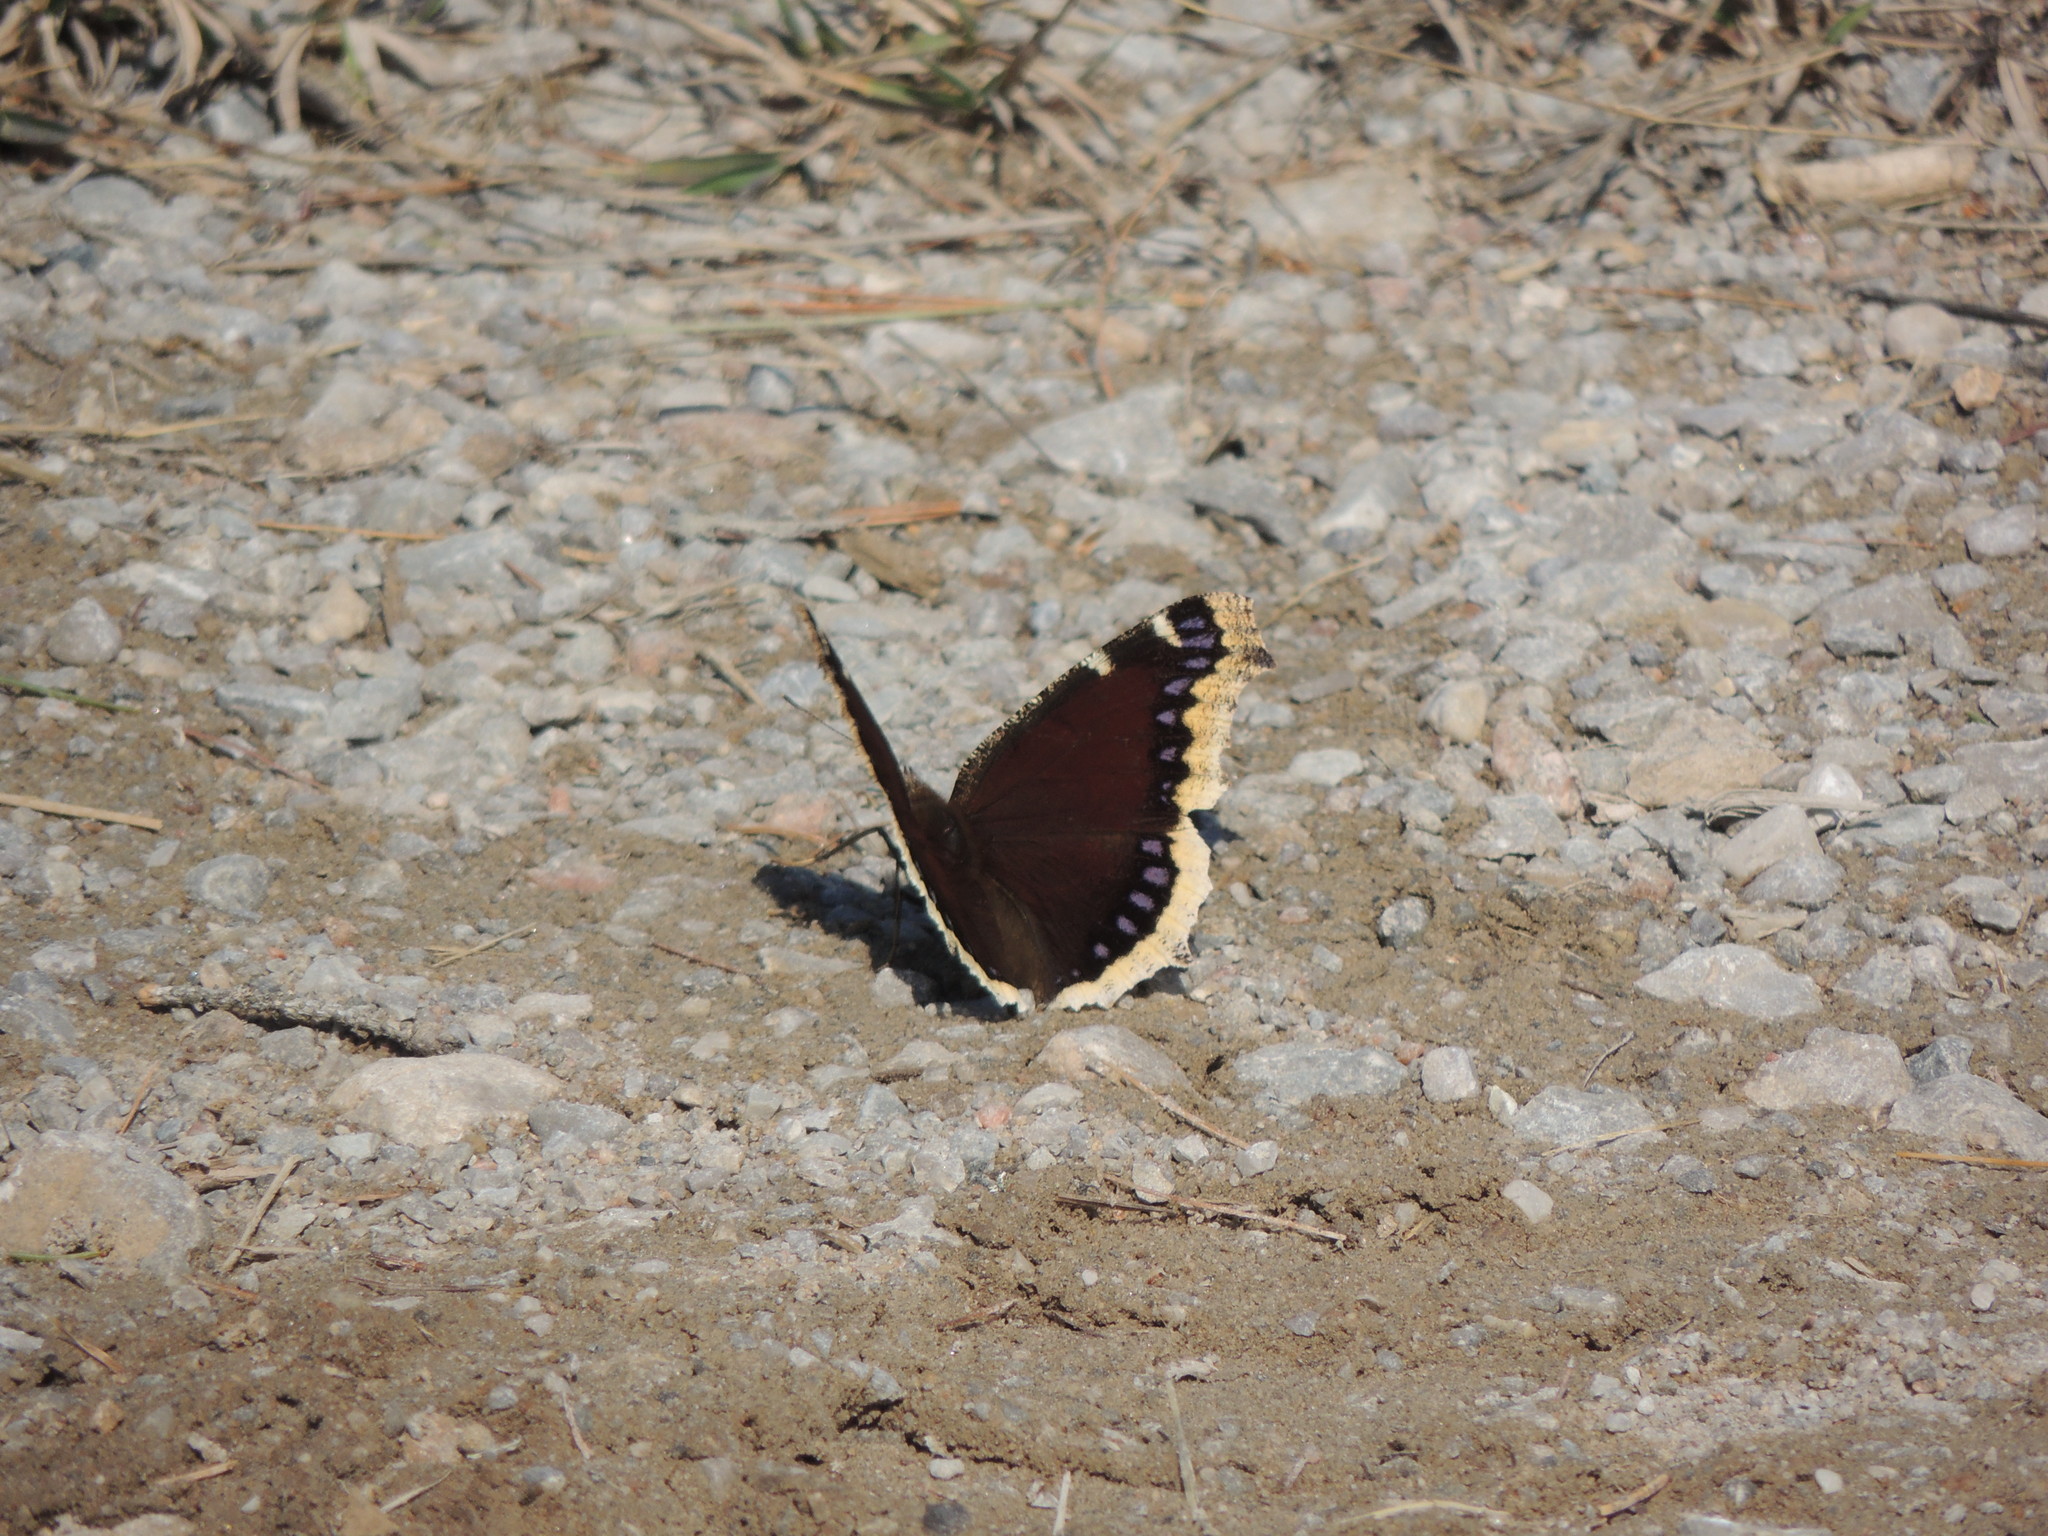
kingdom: Animalia
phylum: Arthropoda
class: Insecta
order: Lepidoptera
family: Nymphalidae
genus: Nymphalis
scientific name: Nymphalis antiopa
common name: Camberwell beauty
